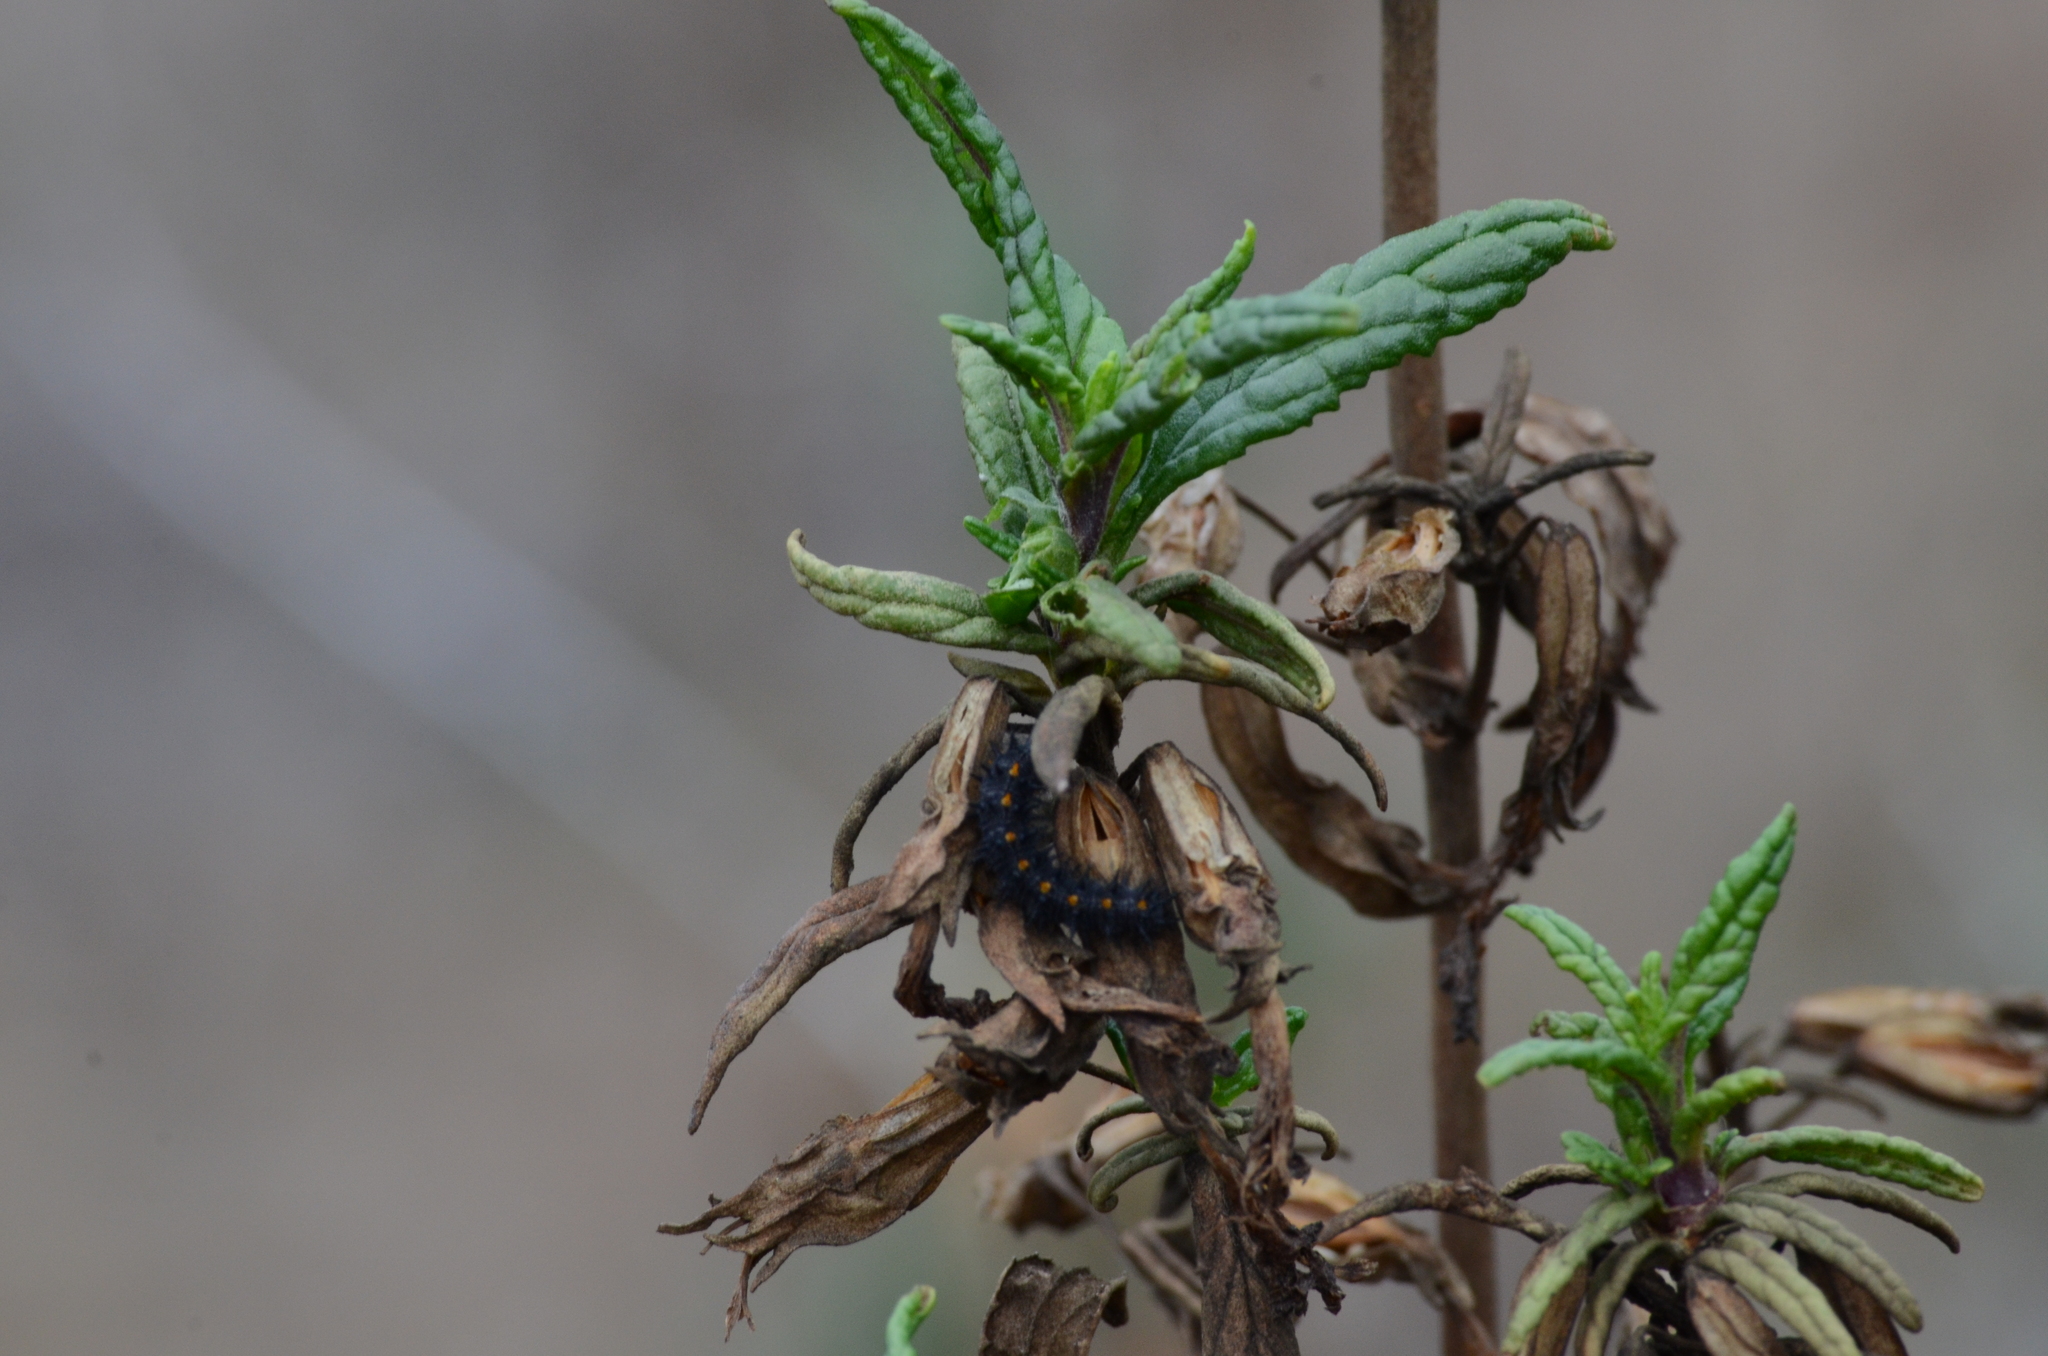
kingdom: Animalia
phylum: Arthropoda
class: Insecta
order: Lepidoptera
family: Nymphalidae
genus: Occidryas
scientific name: Occidryas chalcedona
